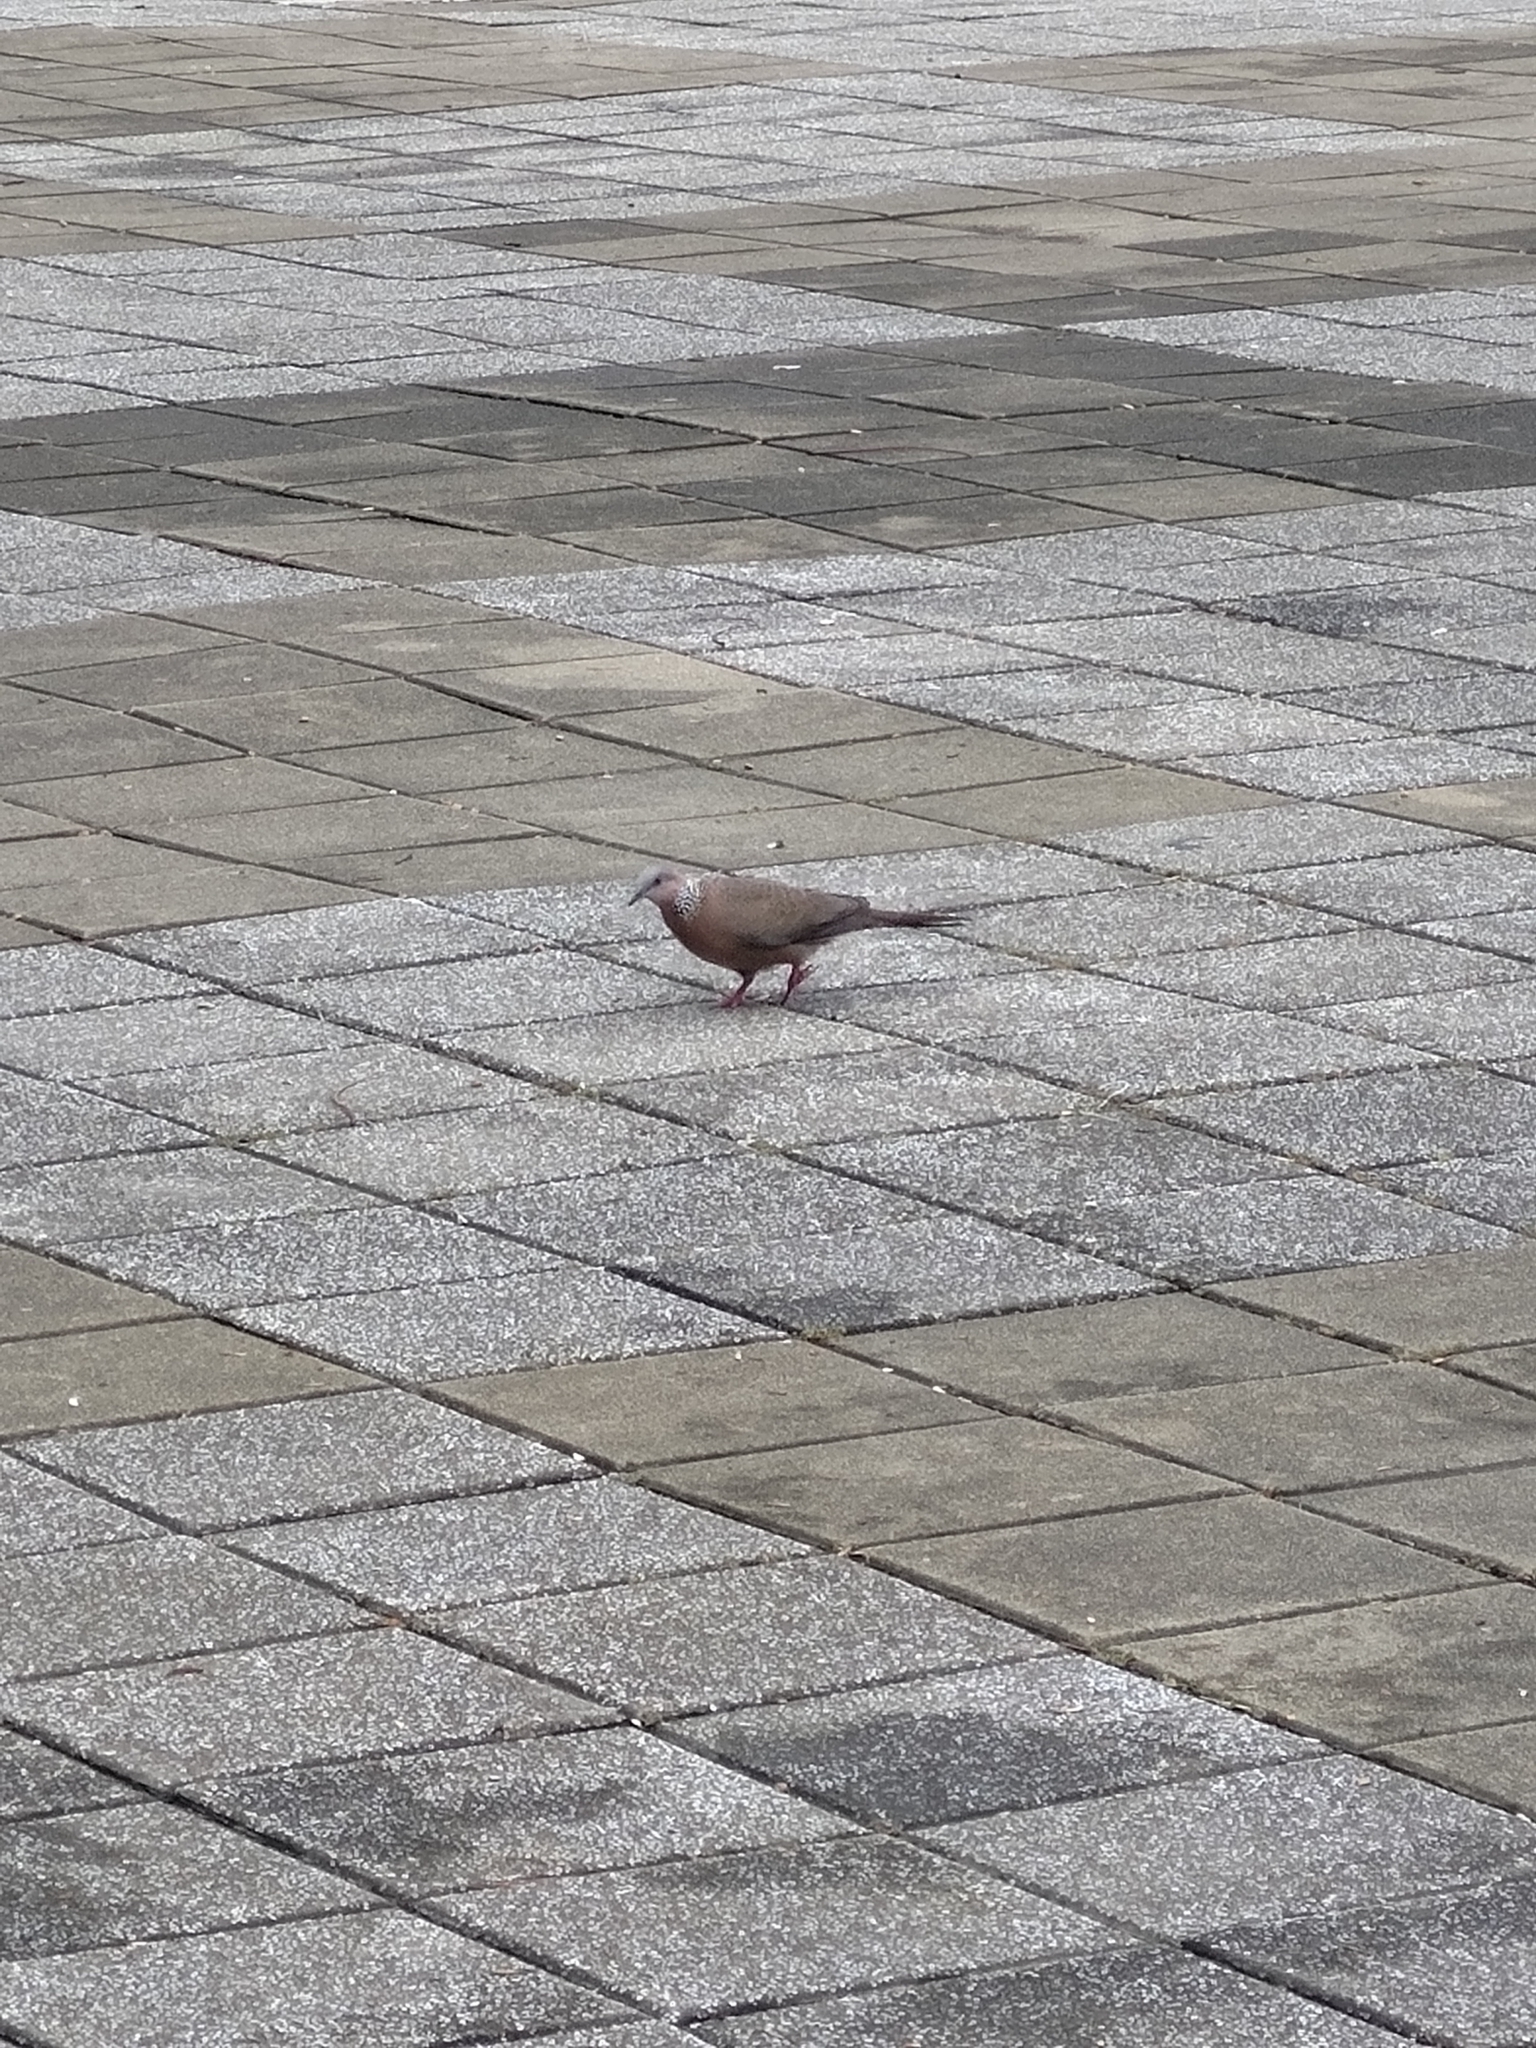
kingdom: Animalia
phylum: Chordata
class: Aves
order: Columbiformes
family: Columbidae
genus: Spilopelia
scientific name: Spilopelia chinensis
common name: Spotted dove
